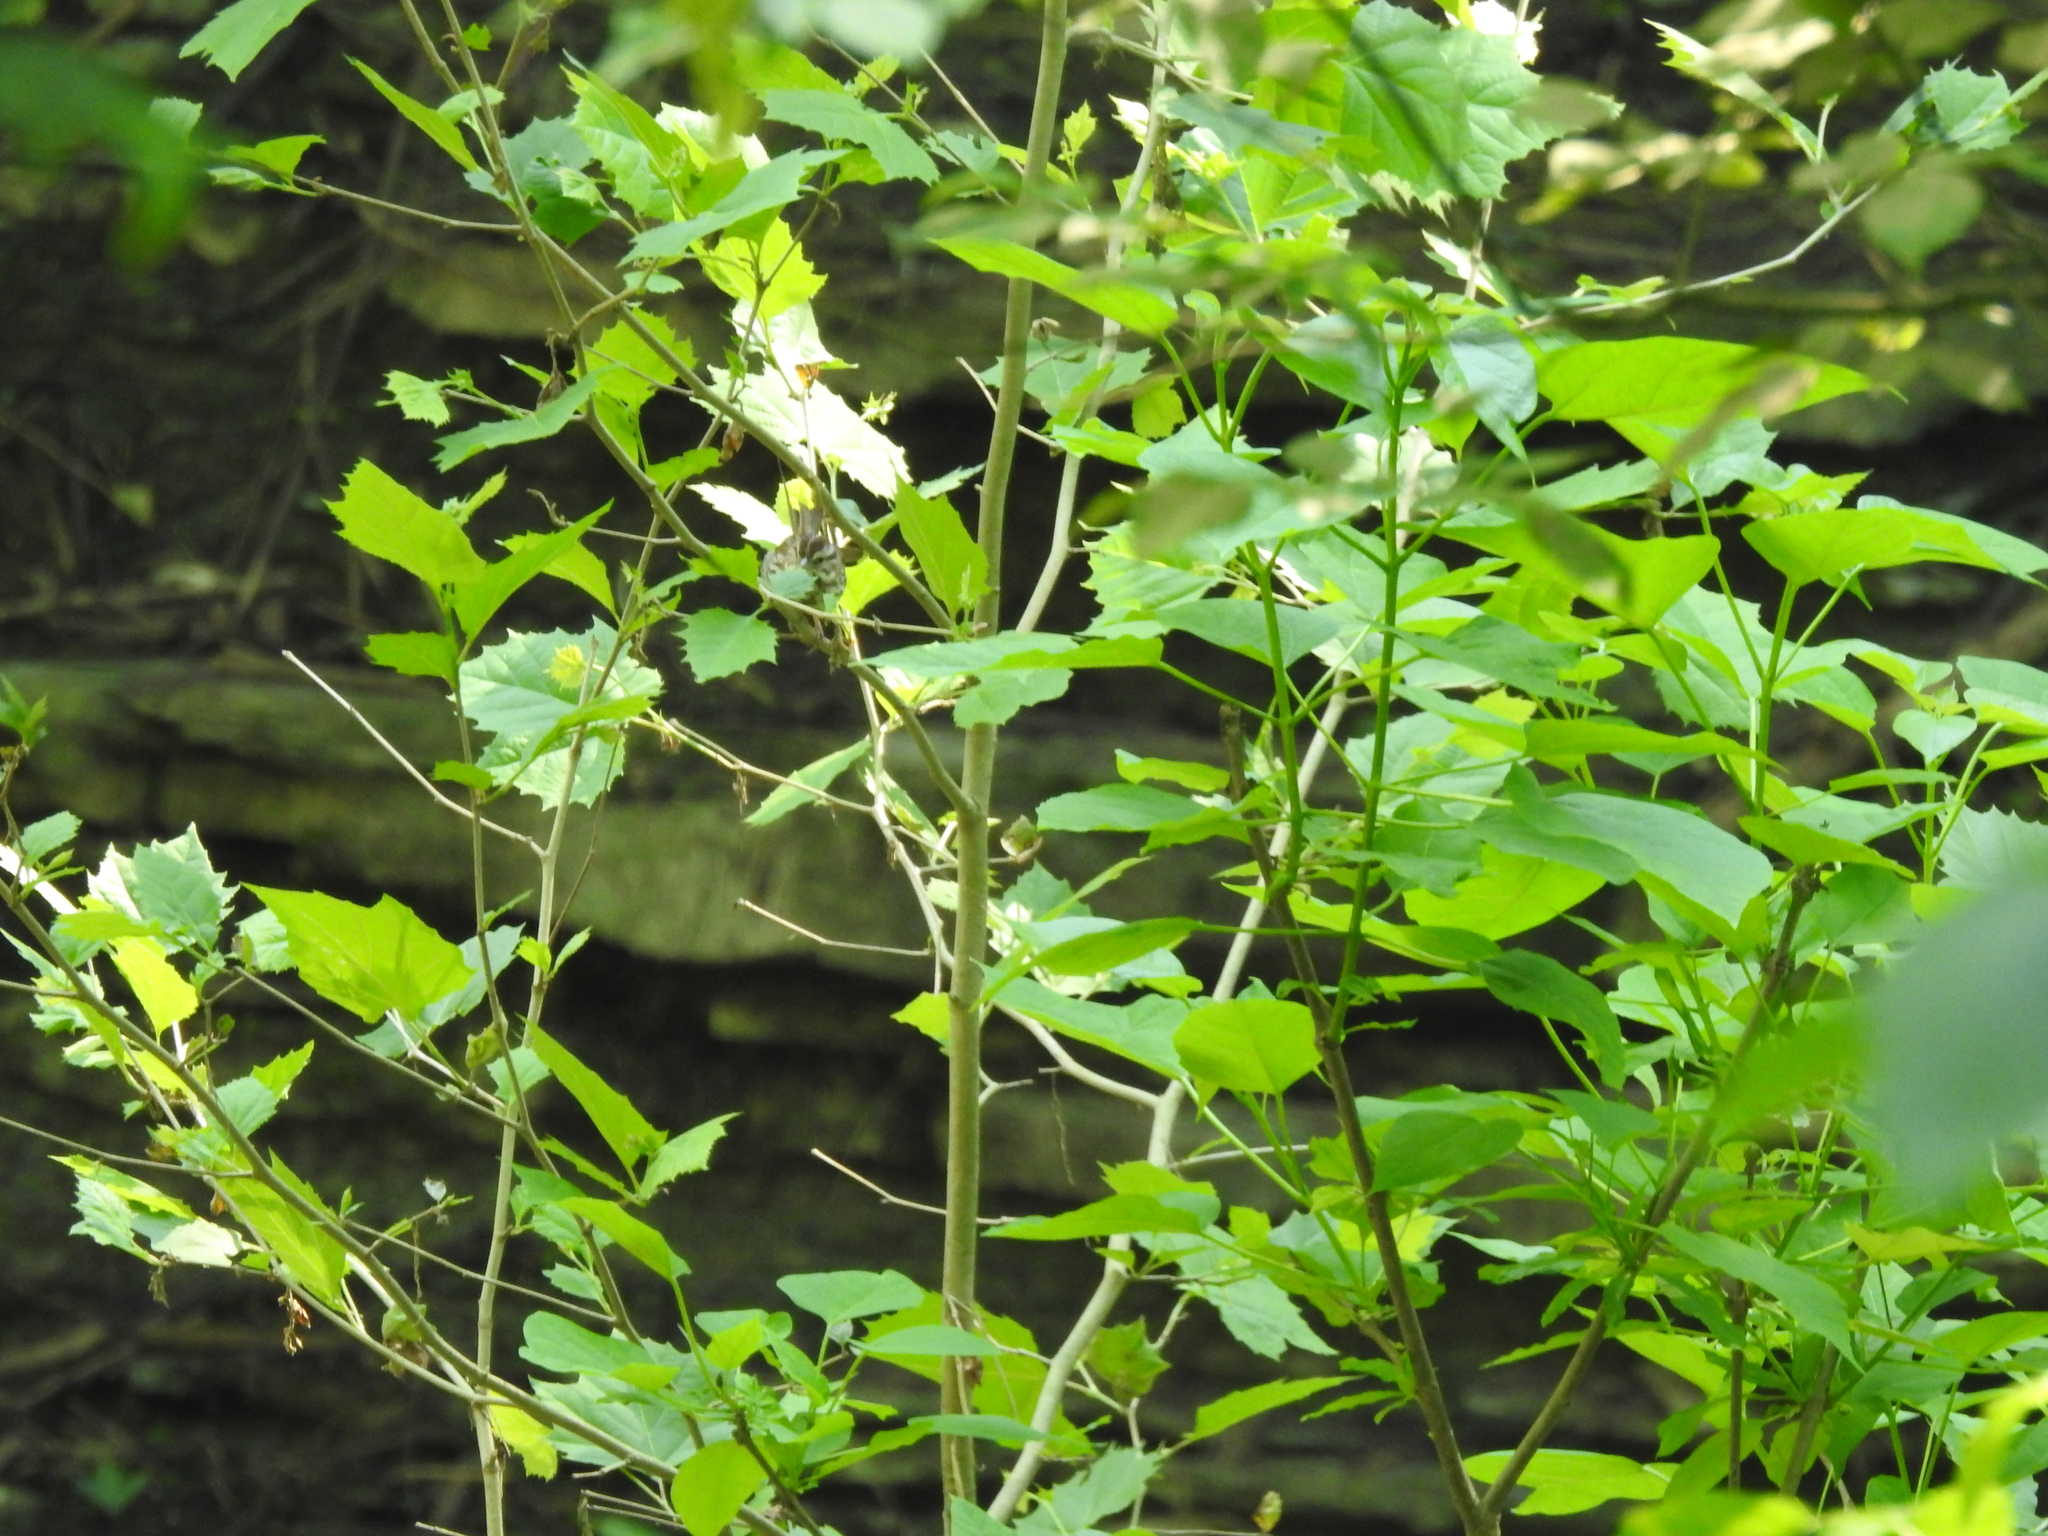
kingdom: Plantae
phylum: Tracheophyta
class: Magnoliopsida
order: Proteales
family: Platanaceae
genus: Platanus
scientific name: Platanus occidentalis
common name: American sycamore
